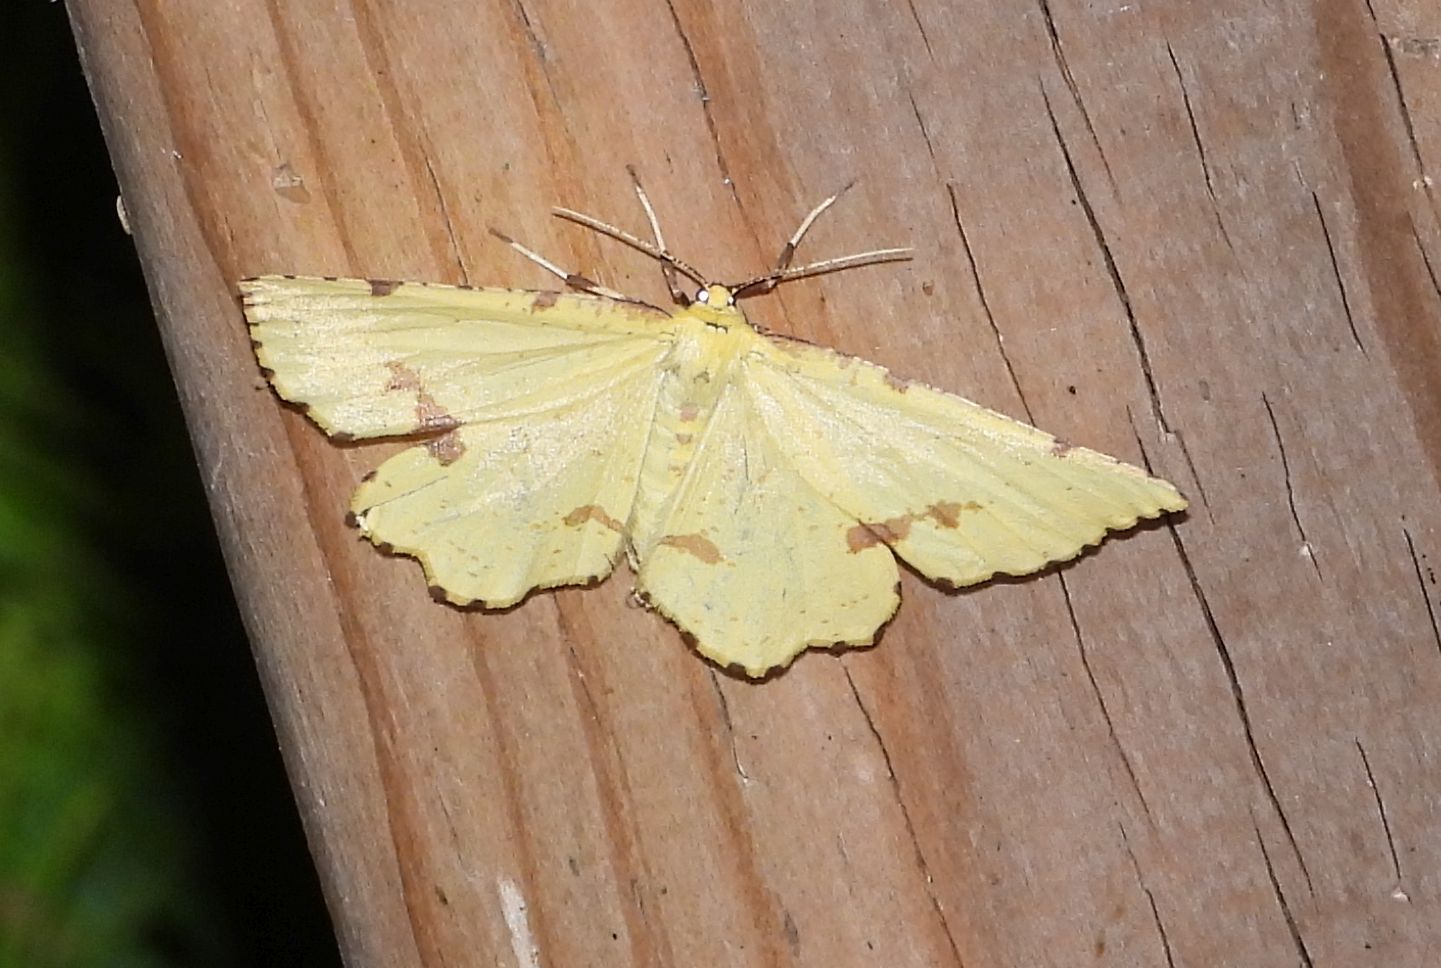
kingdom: Animalia
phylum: Arthropoda
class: Insecta
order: Lepidoptera
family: Geometridae
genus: Xanthotype
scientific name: Xanthotype
